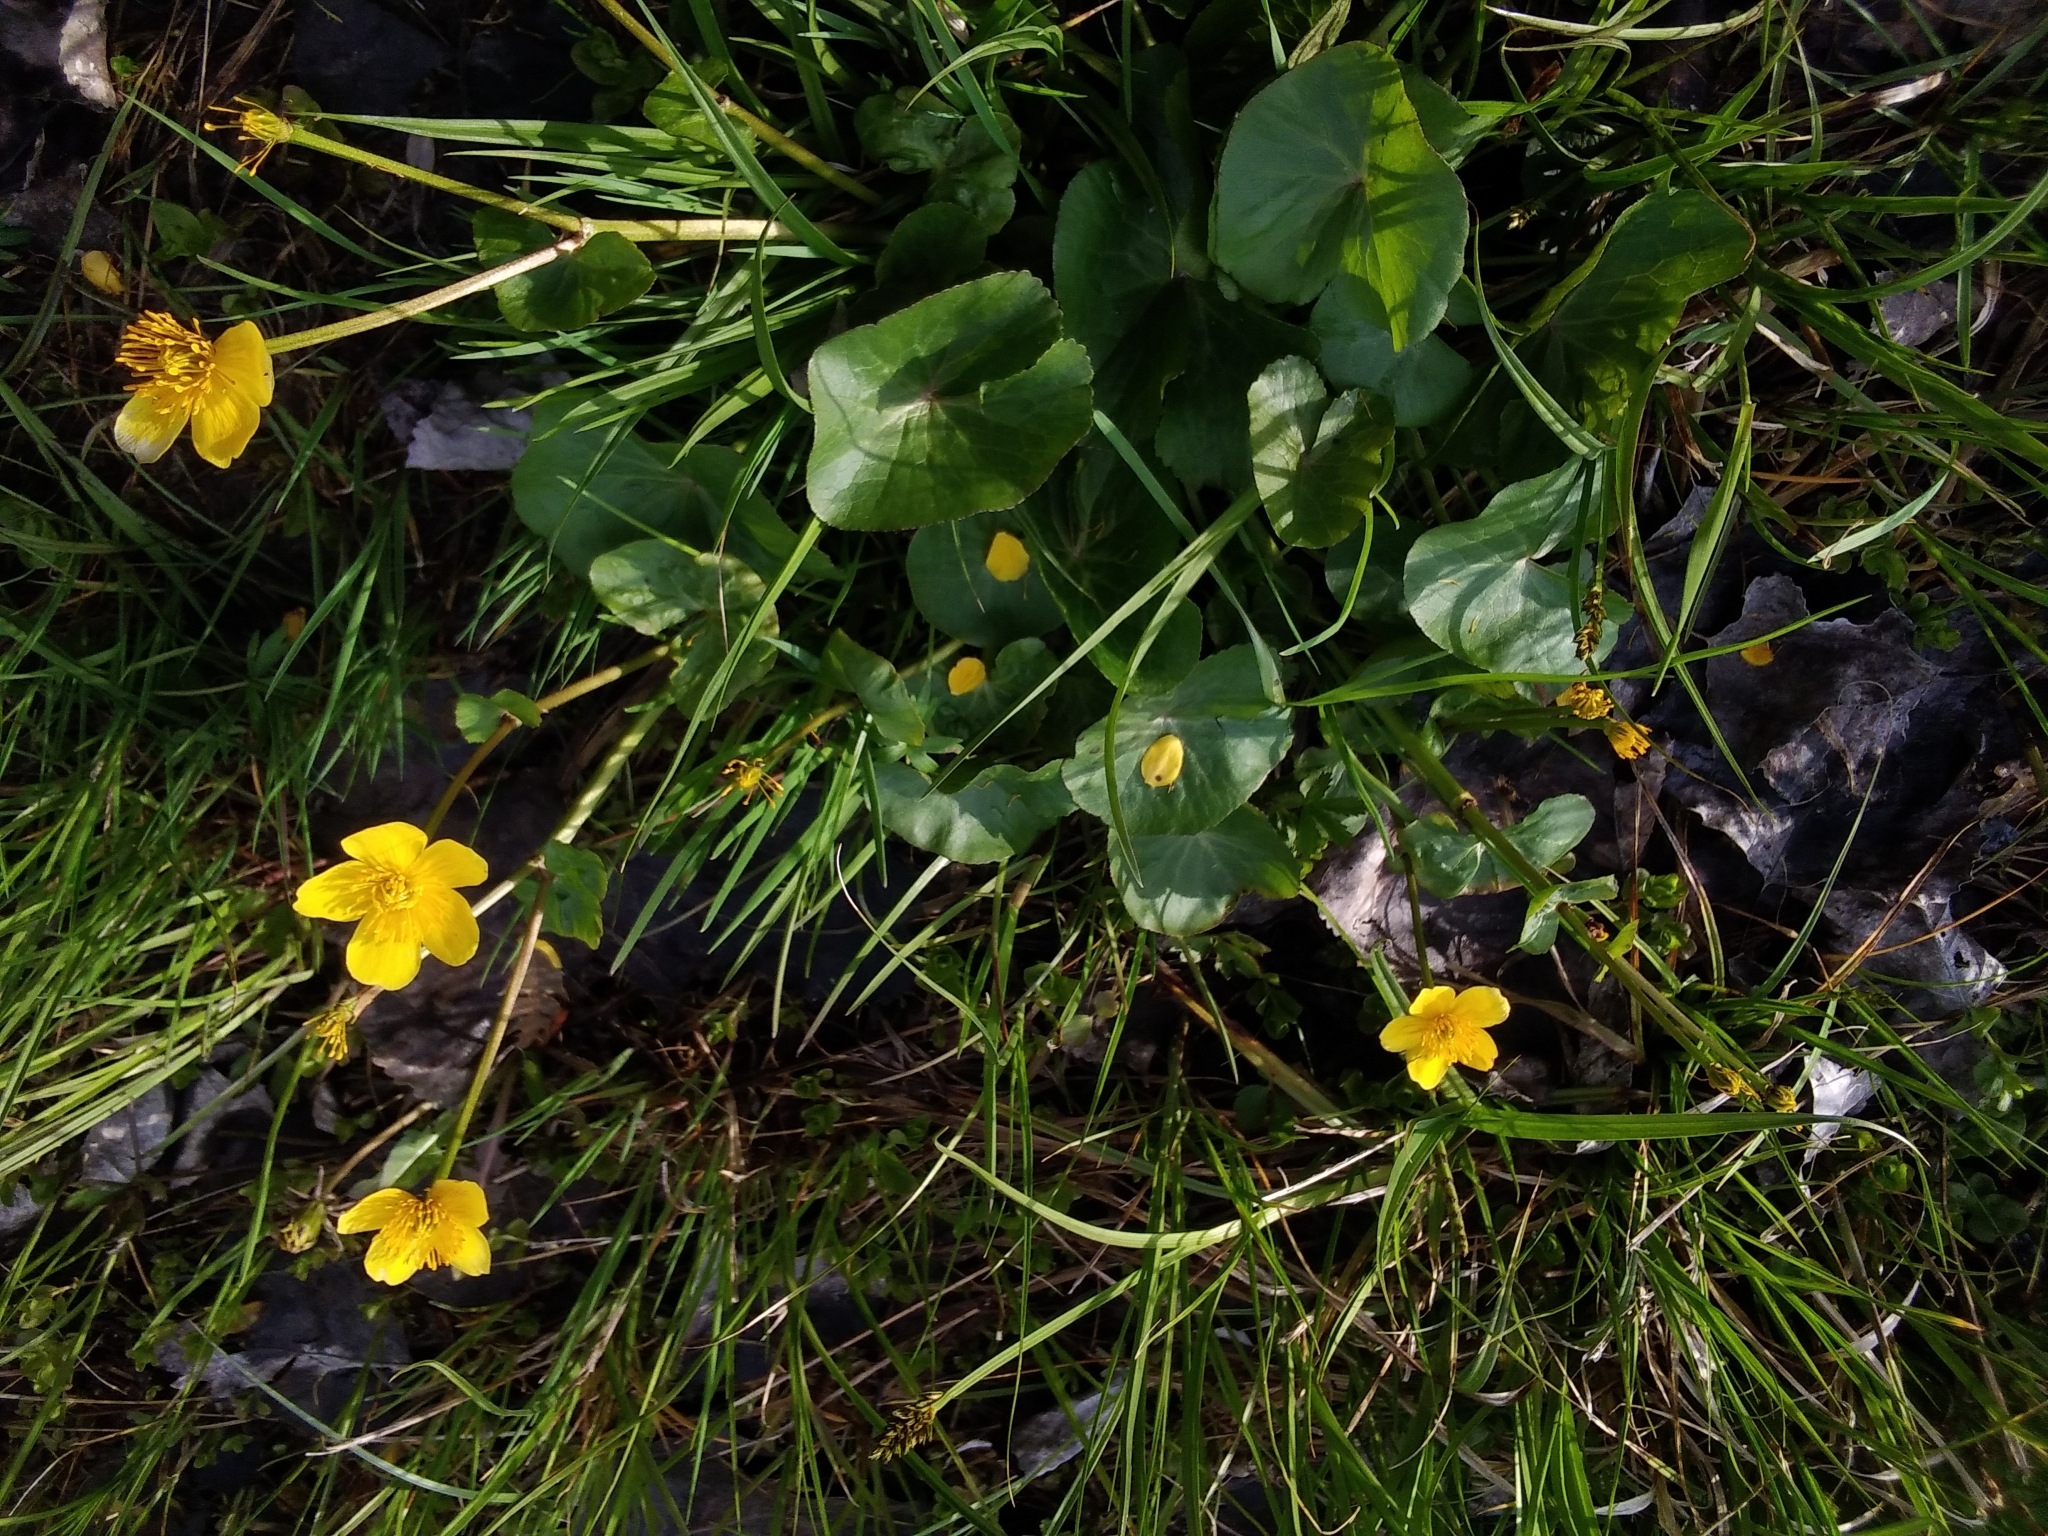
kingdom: Plantae
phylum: Tracheophyta
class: Magnoliopsida
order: Ranunculales
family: Ranunculaceae
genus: Caltha
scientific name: Caltha palustris
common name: Marsh marigold
